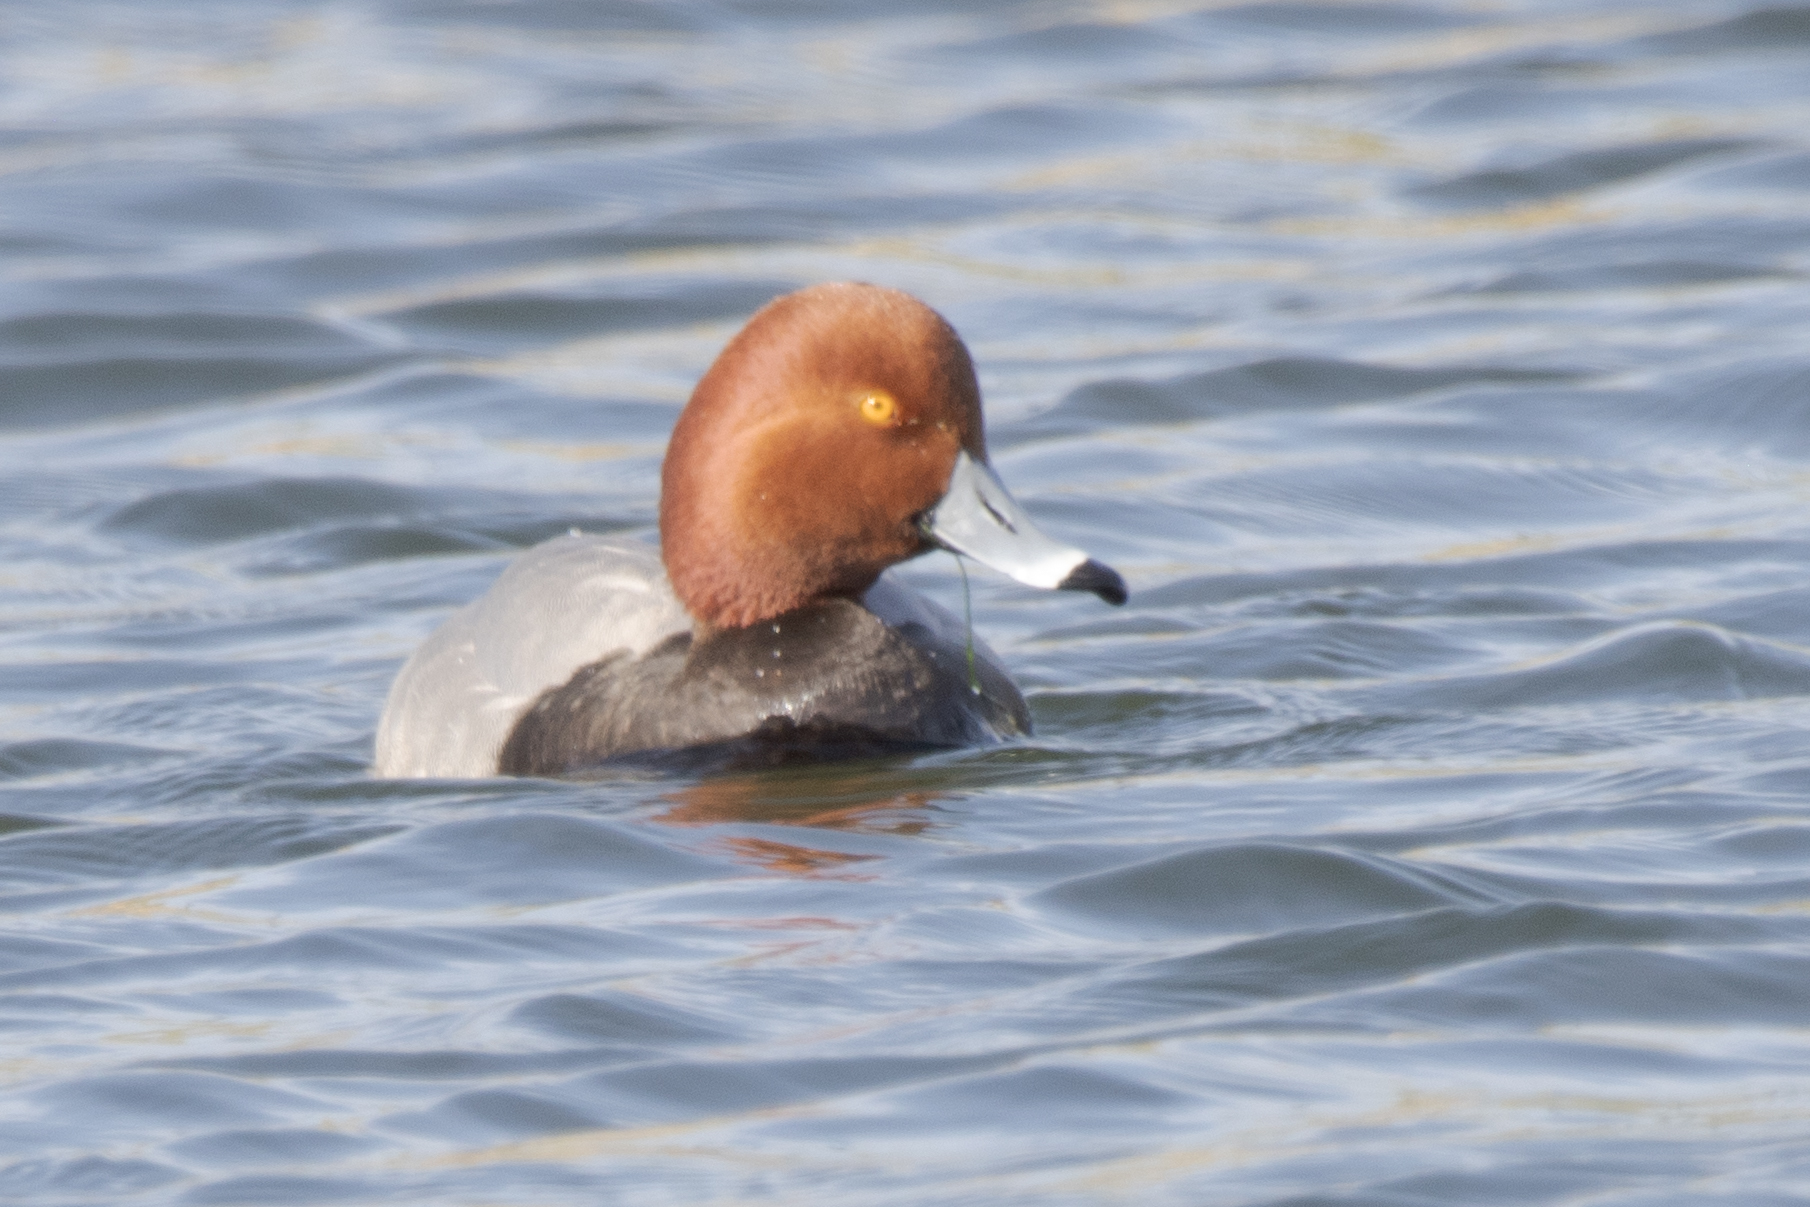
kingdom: Animalia
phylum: Chordata
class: Aves
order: Anseriformes
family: Anatidae
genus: Aythya
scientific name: Aythya americana
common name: Redhead
